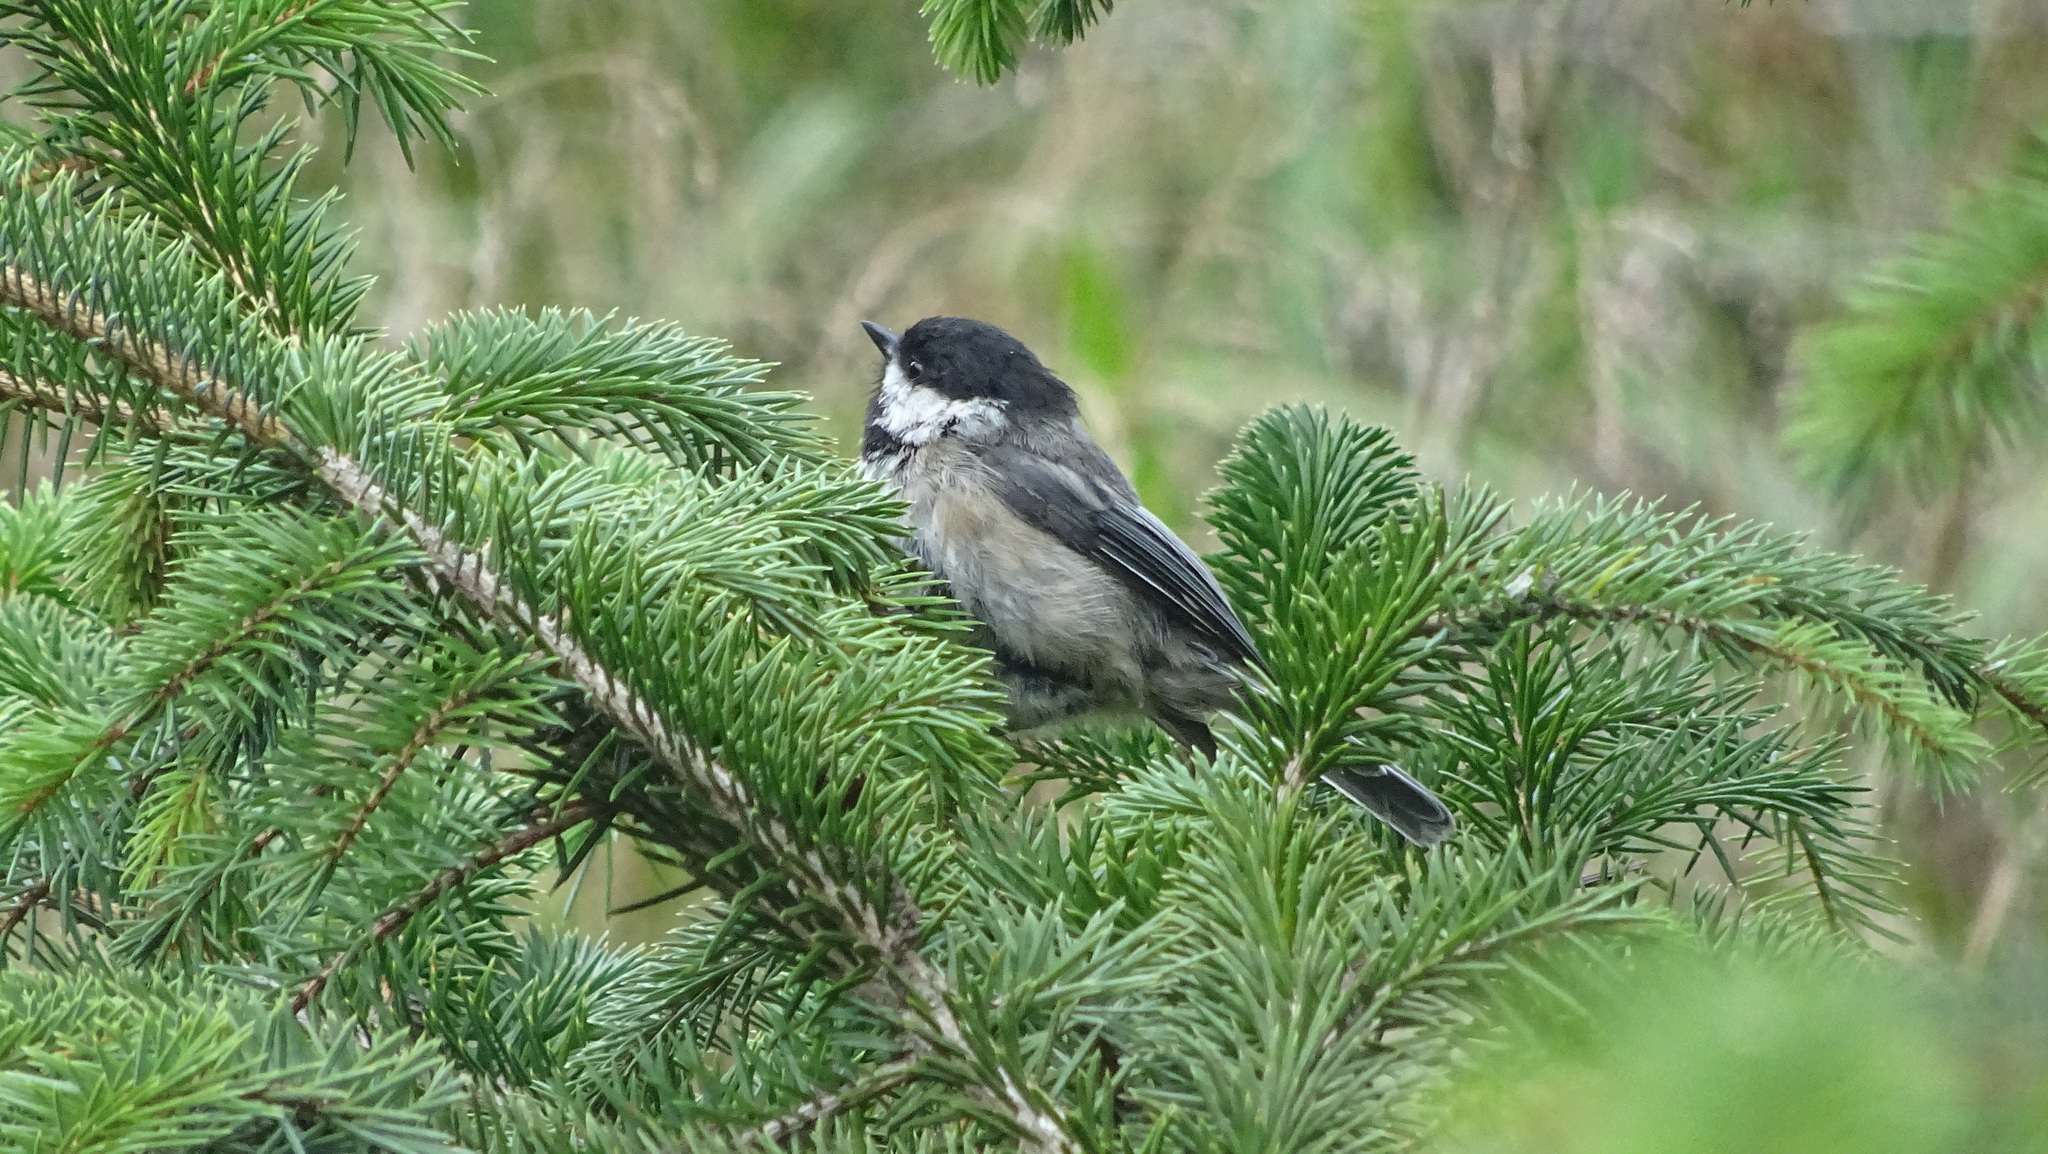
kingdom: Animalia
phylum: Chordata
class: Aves
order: Passeriformes
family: Paridae
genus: Poecile
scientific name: Poecile atricapillus
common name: Black-capped chickadee
